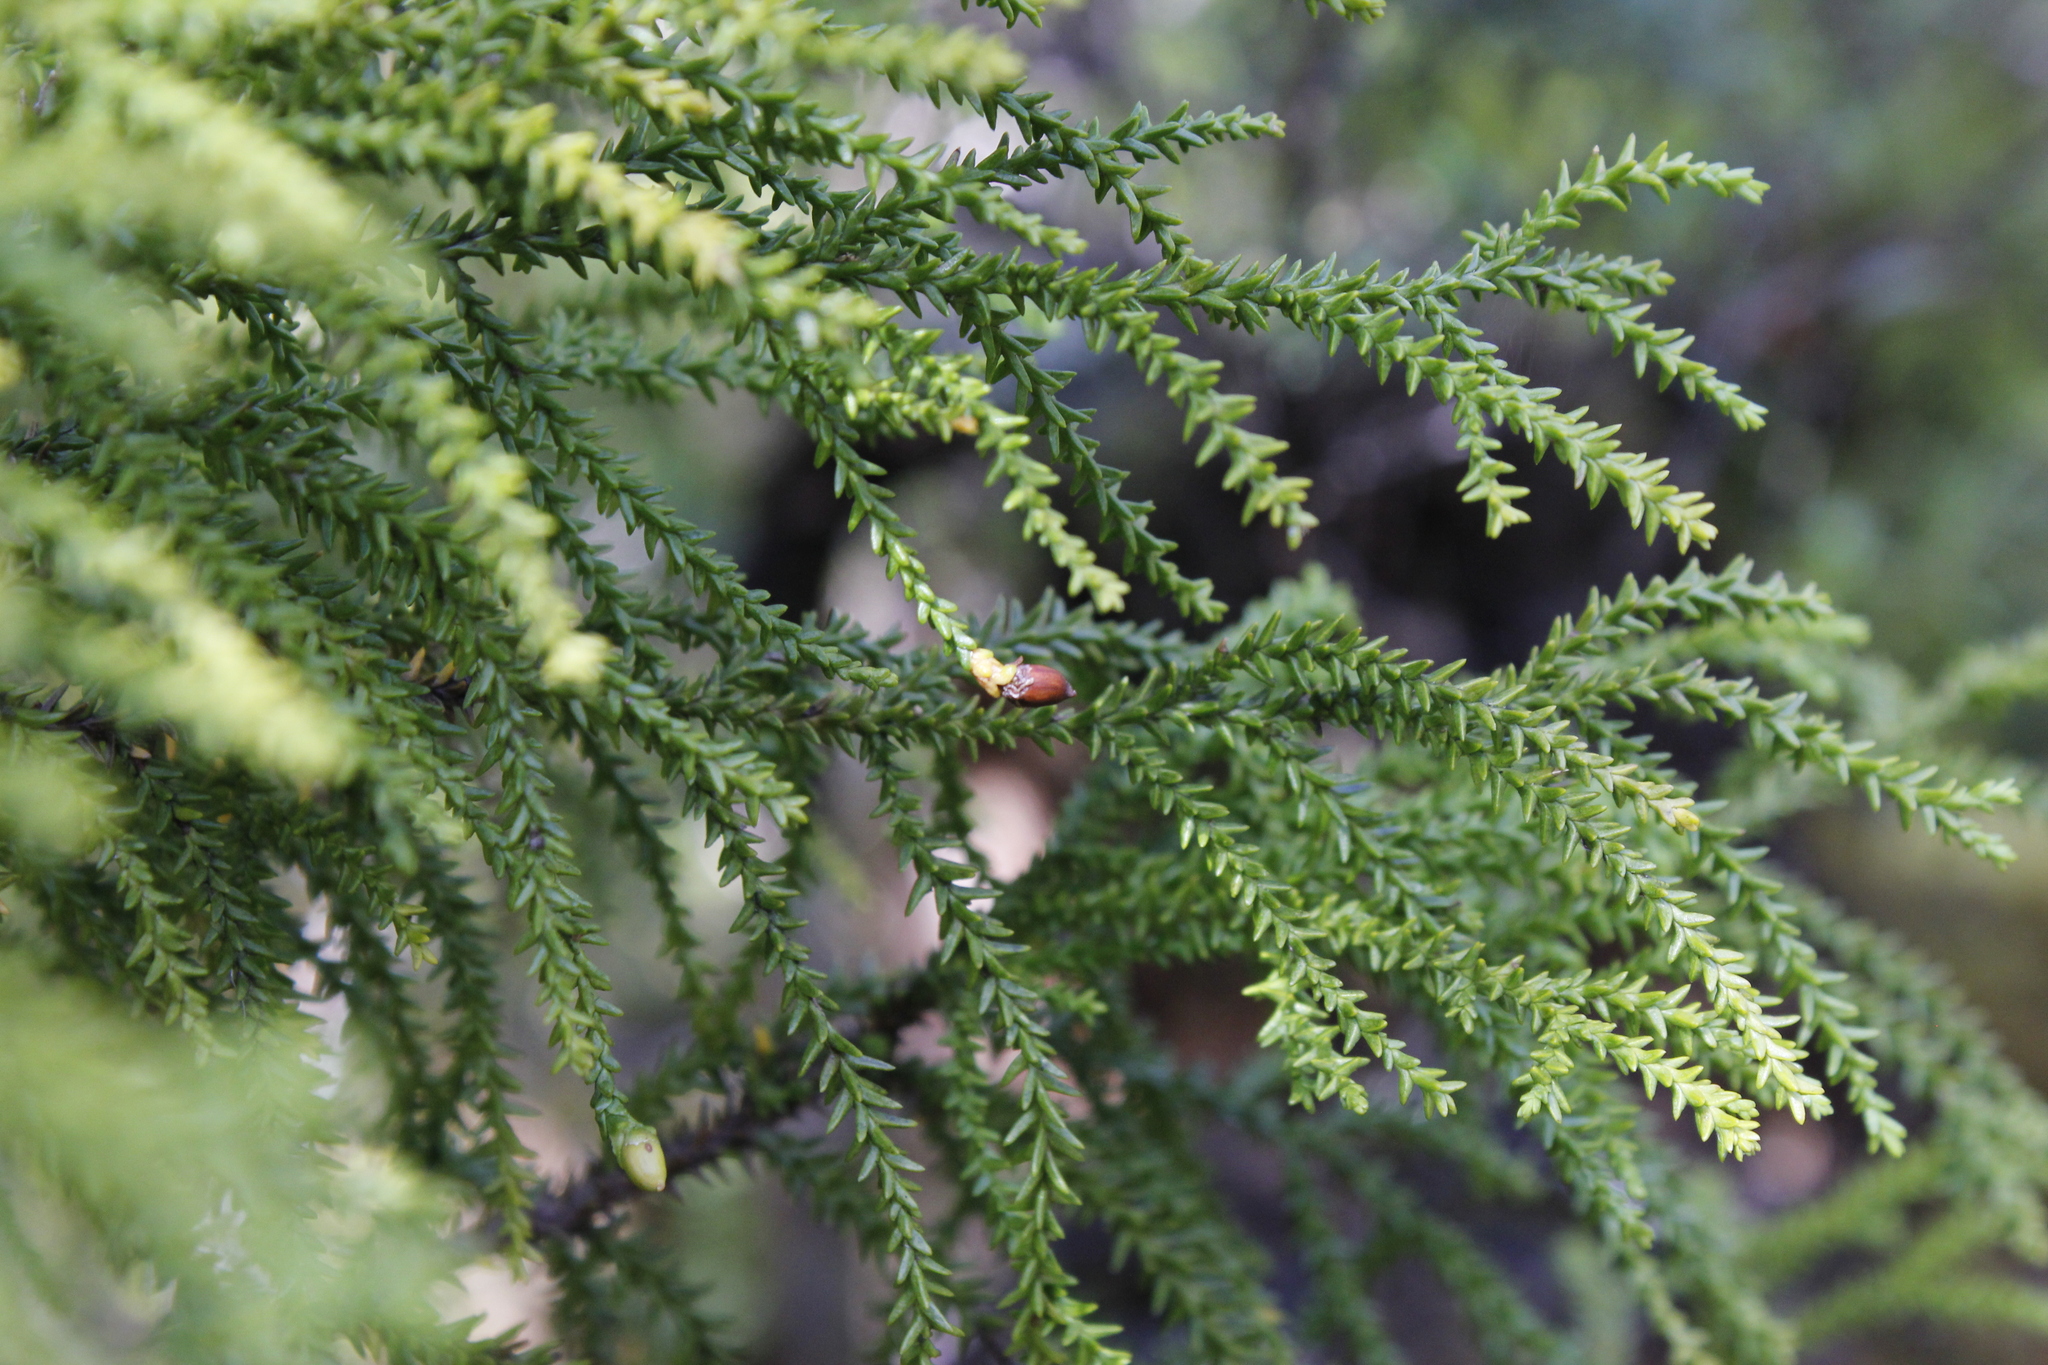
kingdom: Plantae
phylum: Tracheophyta
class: Pinopsida
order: Pinales
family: Podocarpaceae
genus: Lepidothamnus
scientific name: Lepidothamnus intermedius
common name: Yellow silver pine
